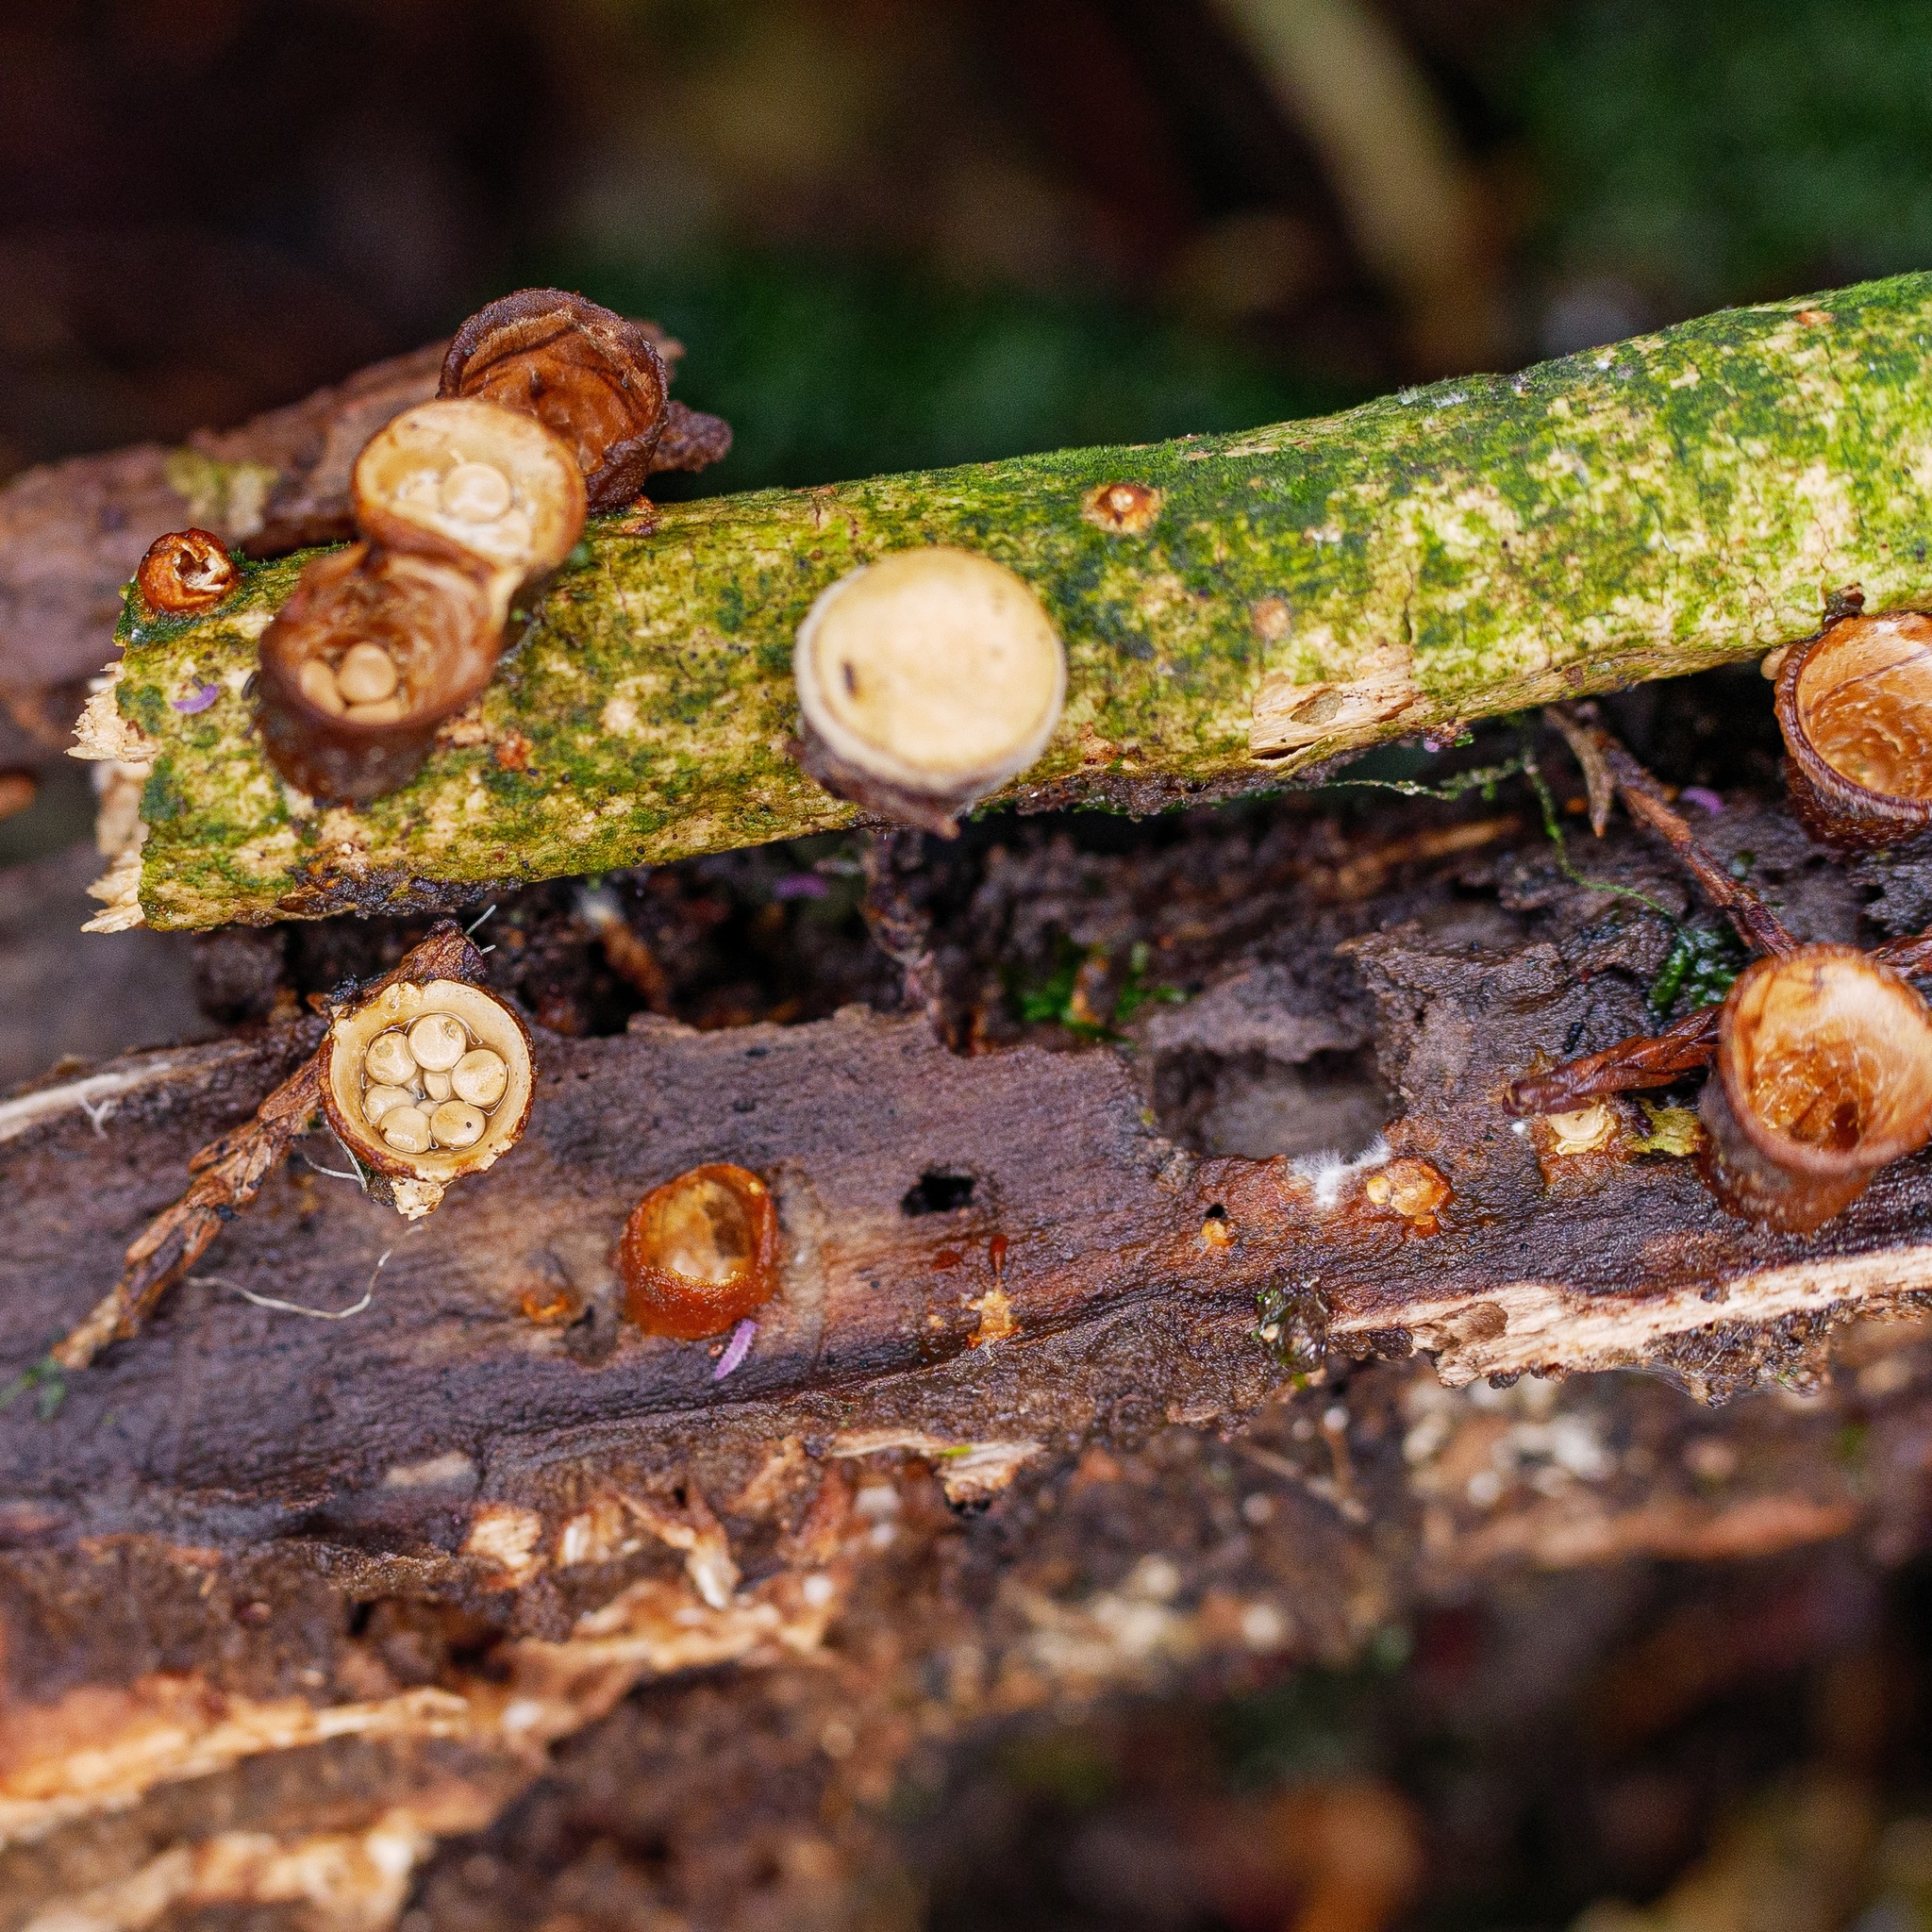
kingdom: Fungi
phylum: Basidiomycota
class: Agaricomycetes
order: Agaricales
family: Nidulariaceae
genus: Crucibulum
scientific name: Crucibulum simile
